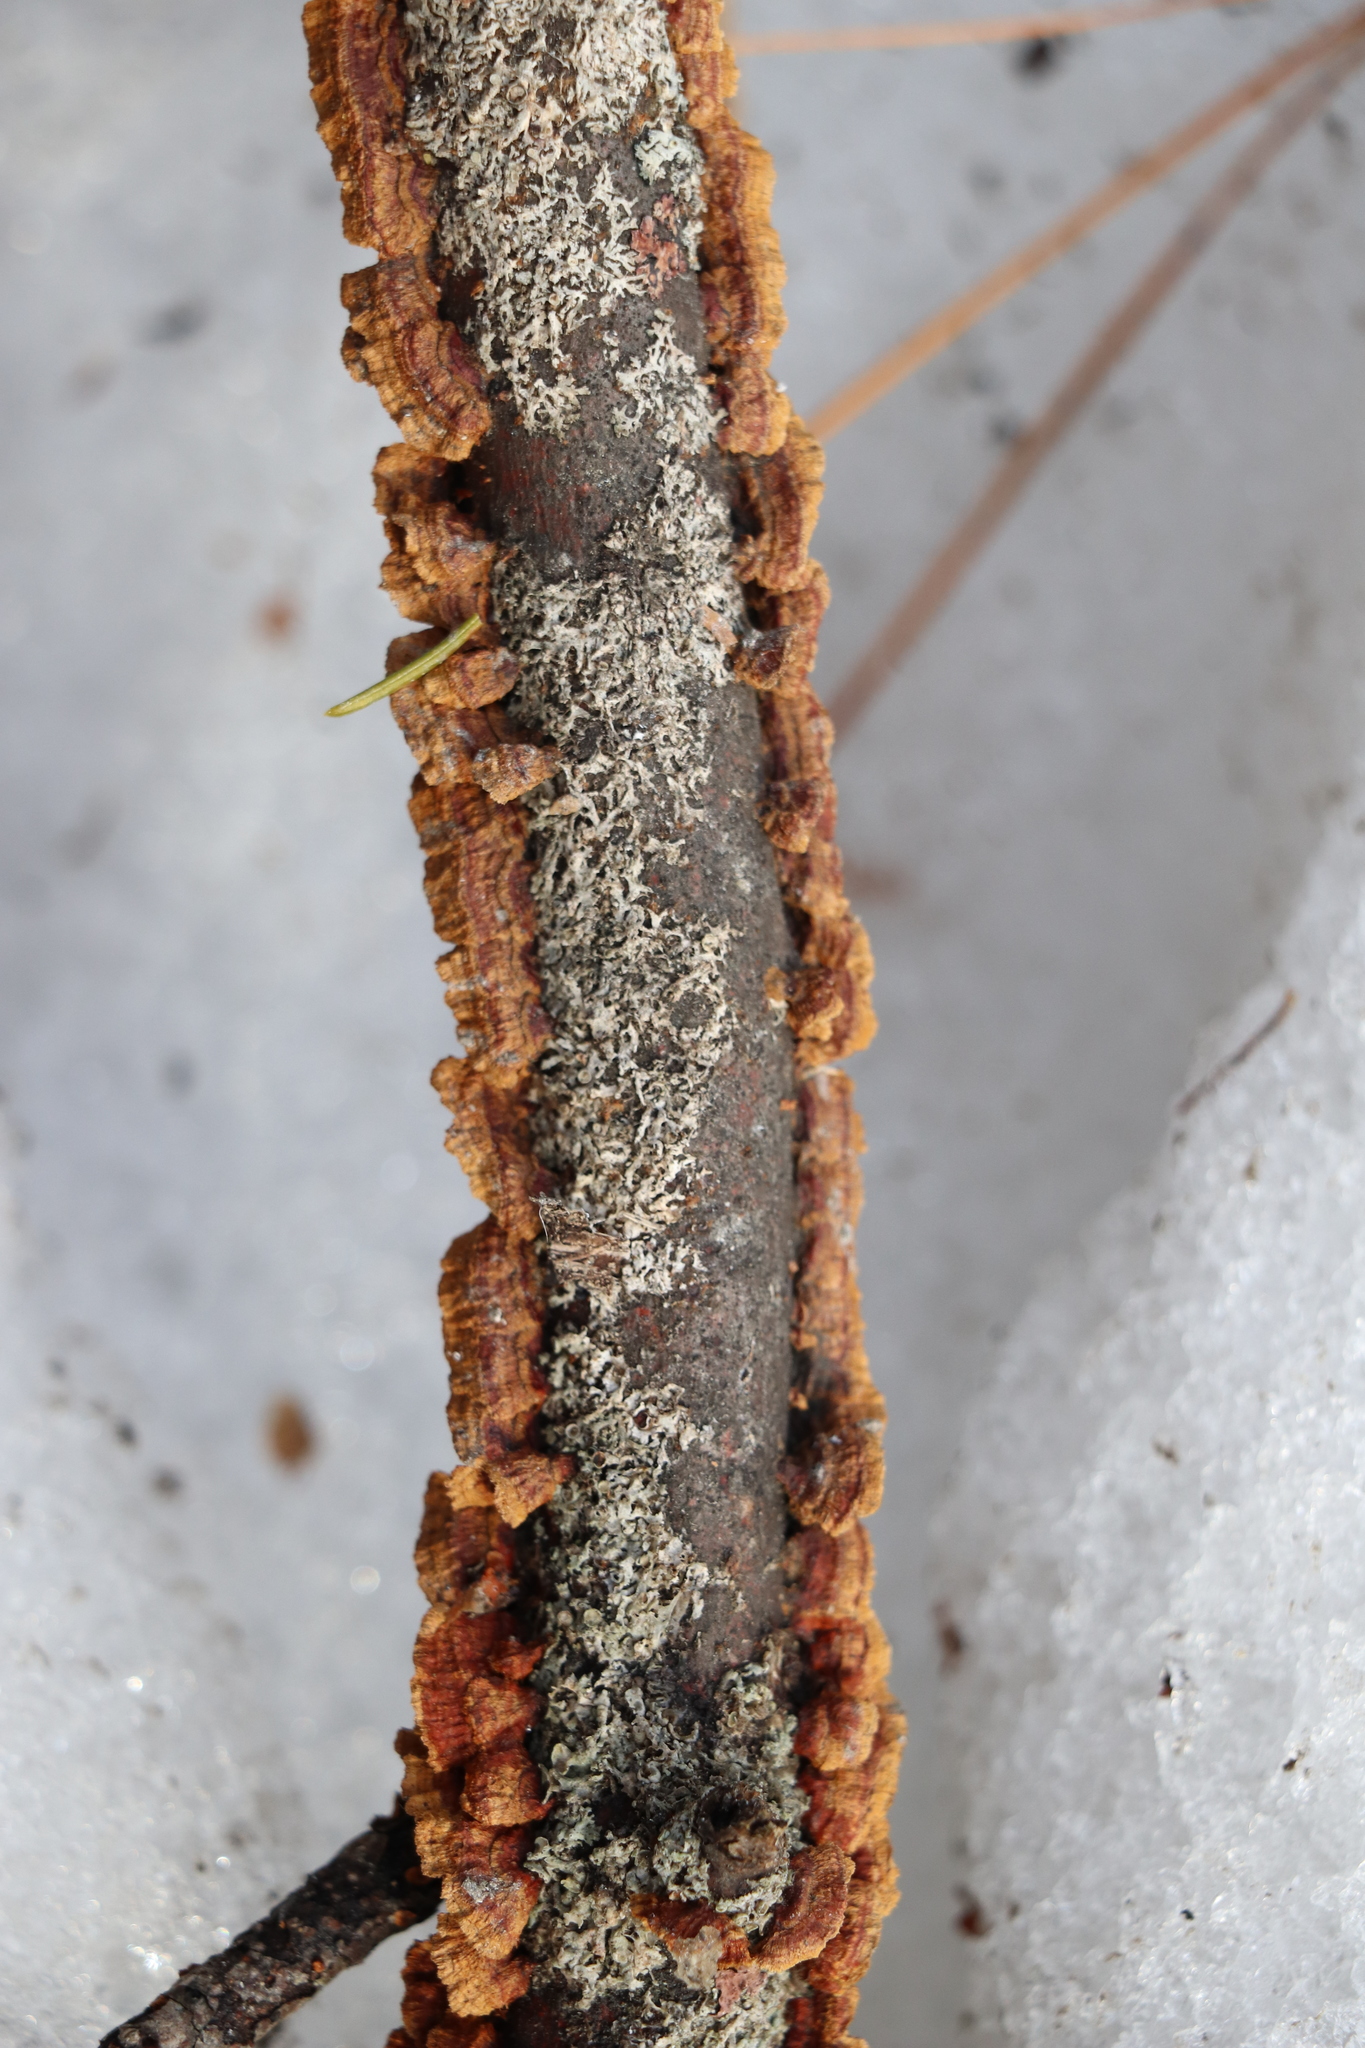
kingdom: Fungi
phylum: Basidiomycota
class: Agaricomycetes
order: Hymenochaetales
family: Hymenochaetaceae
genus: Hydnoporia
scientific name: Hydnoporia tabacina
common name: Willow glue
